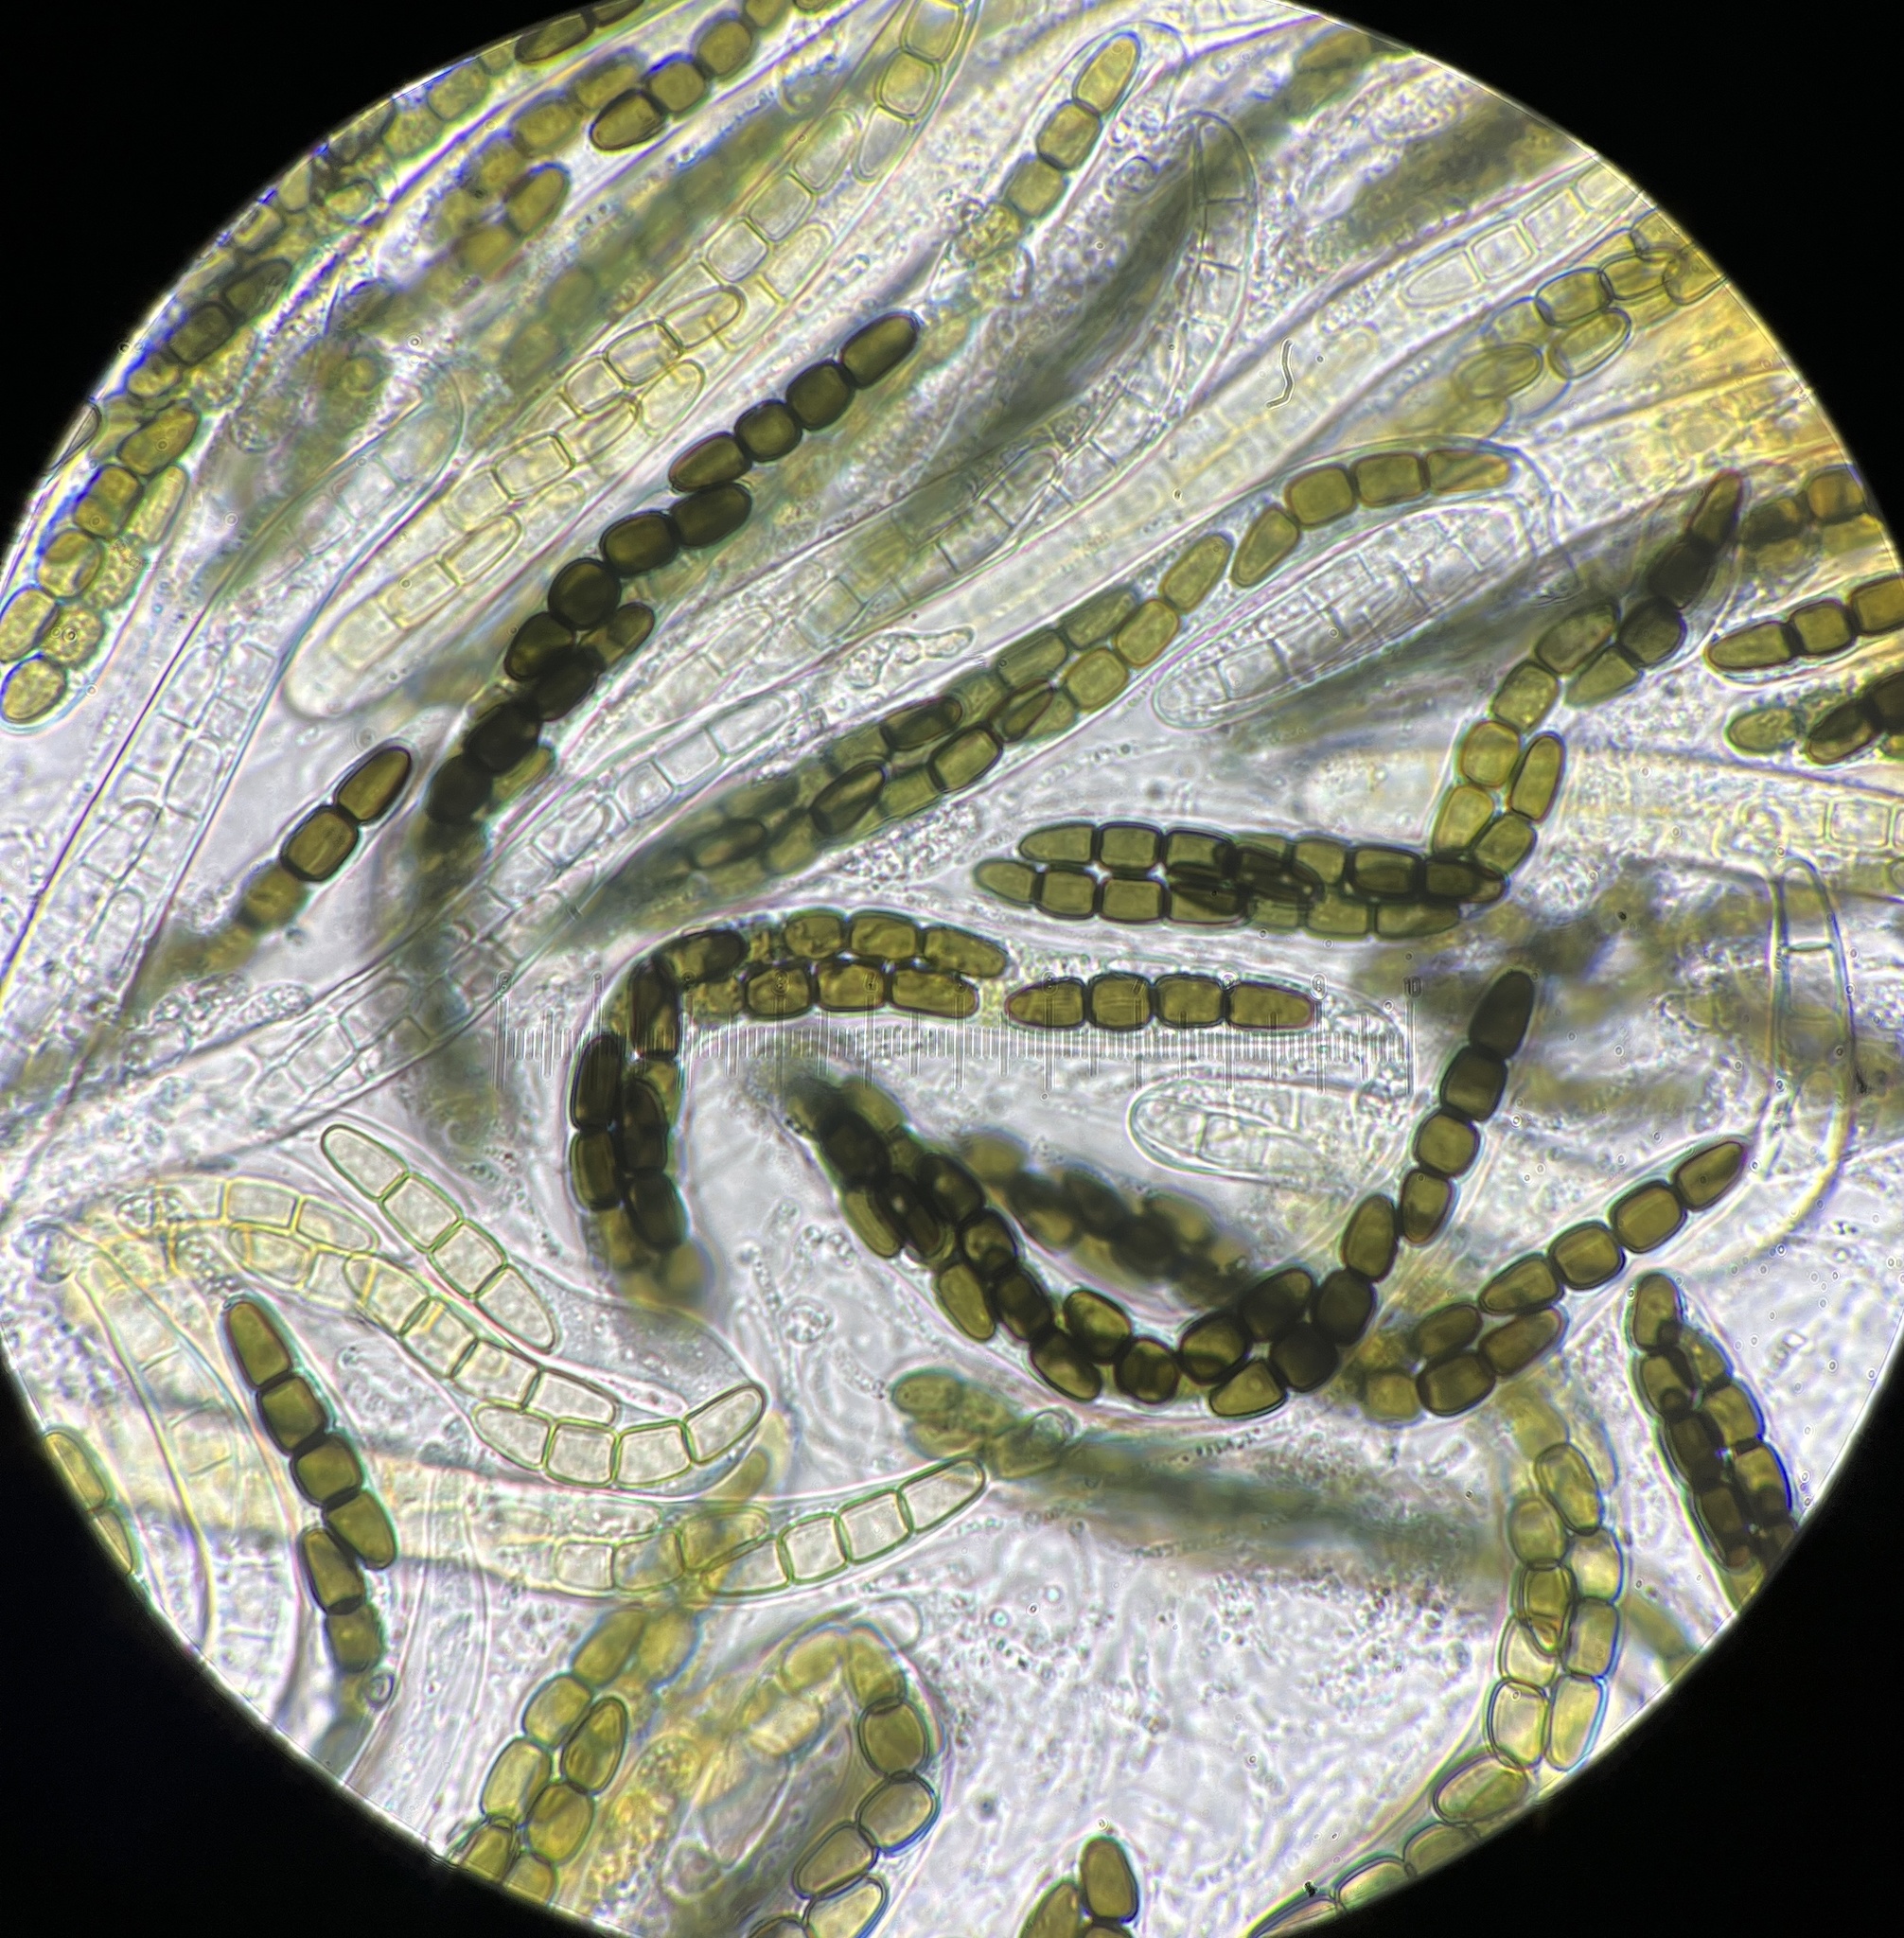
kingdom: Fungi
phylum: Ascomycota
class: Dothideomycetes
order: Pleosporales
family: Sporormiaceae
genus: Sporormiella
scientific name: Sporormiella isomera
